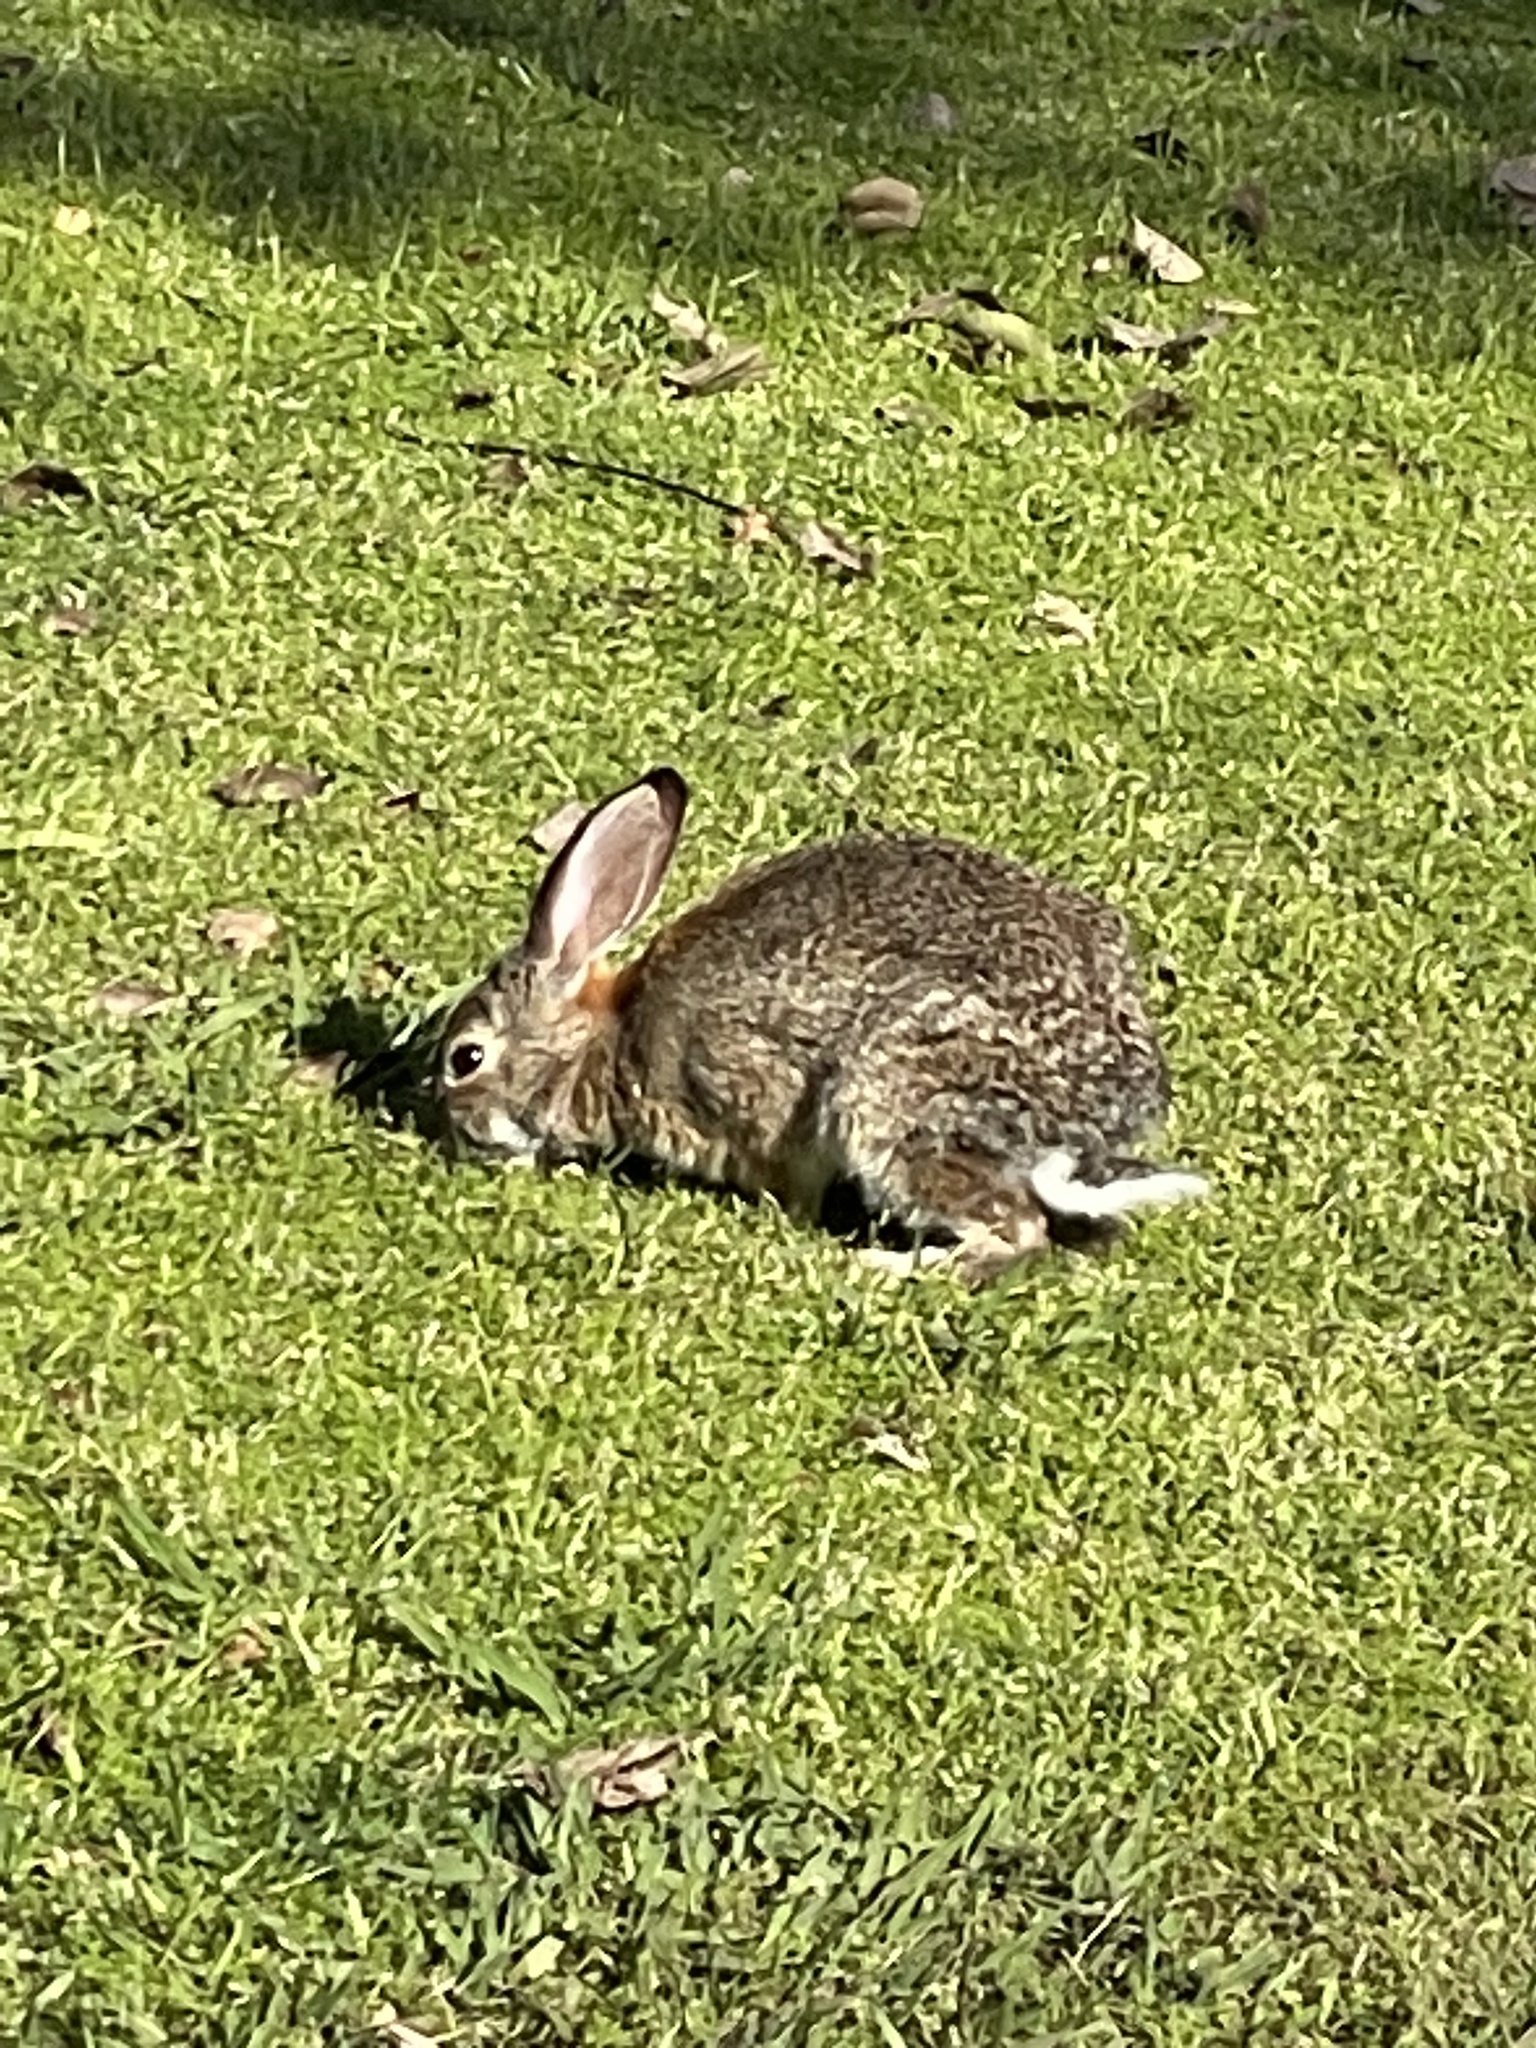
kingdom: Animalia
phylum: Chordata
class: Mammalia
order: Lagomorpha
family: Leporidae
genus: Sylvilagus
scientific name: Sylvilagus audubonii
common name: Desert cottontail
